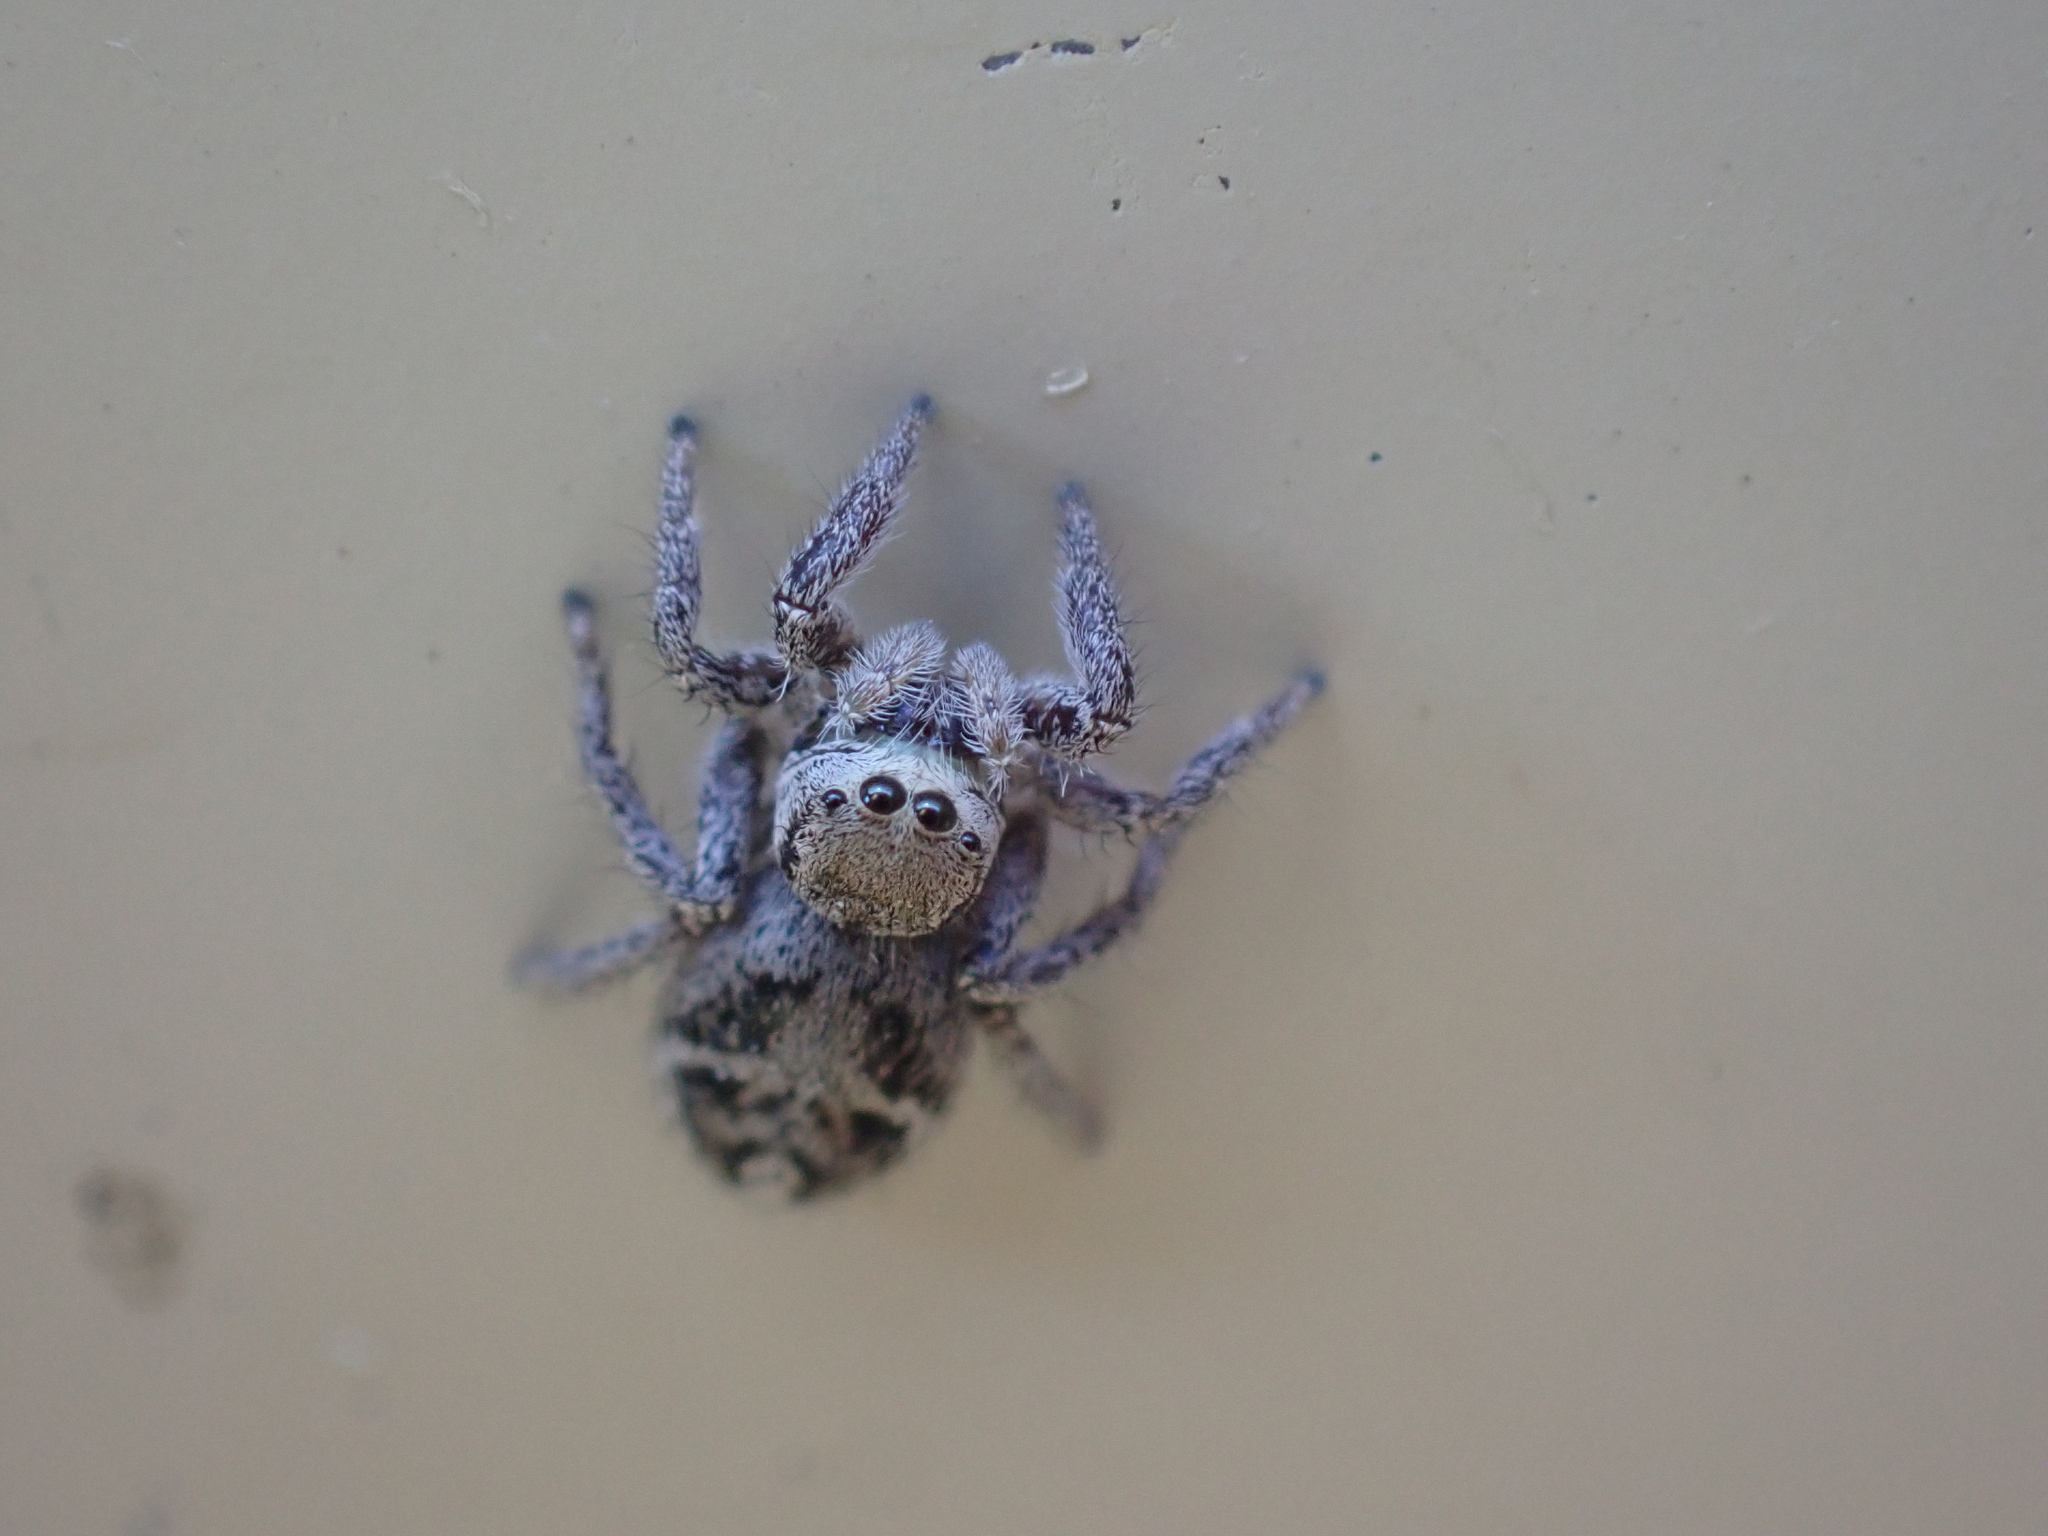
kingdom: Animalia
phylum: Arthropoda
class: Arachnida
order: Araneae
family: Salticidae
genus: Habronattus
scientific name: Habronattus cuspidatus
